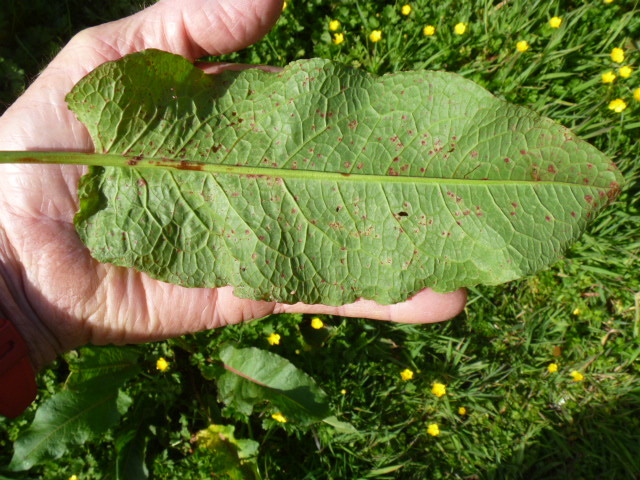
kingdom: Plantae
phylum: Tracheophyta
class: Magnoliopsida
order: Caryophyllales
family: Polygonaceae
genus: Rumex
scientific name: Rumex obtusifolius
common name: Bitter dock
